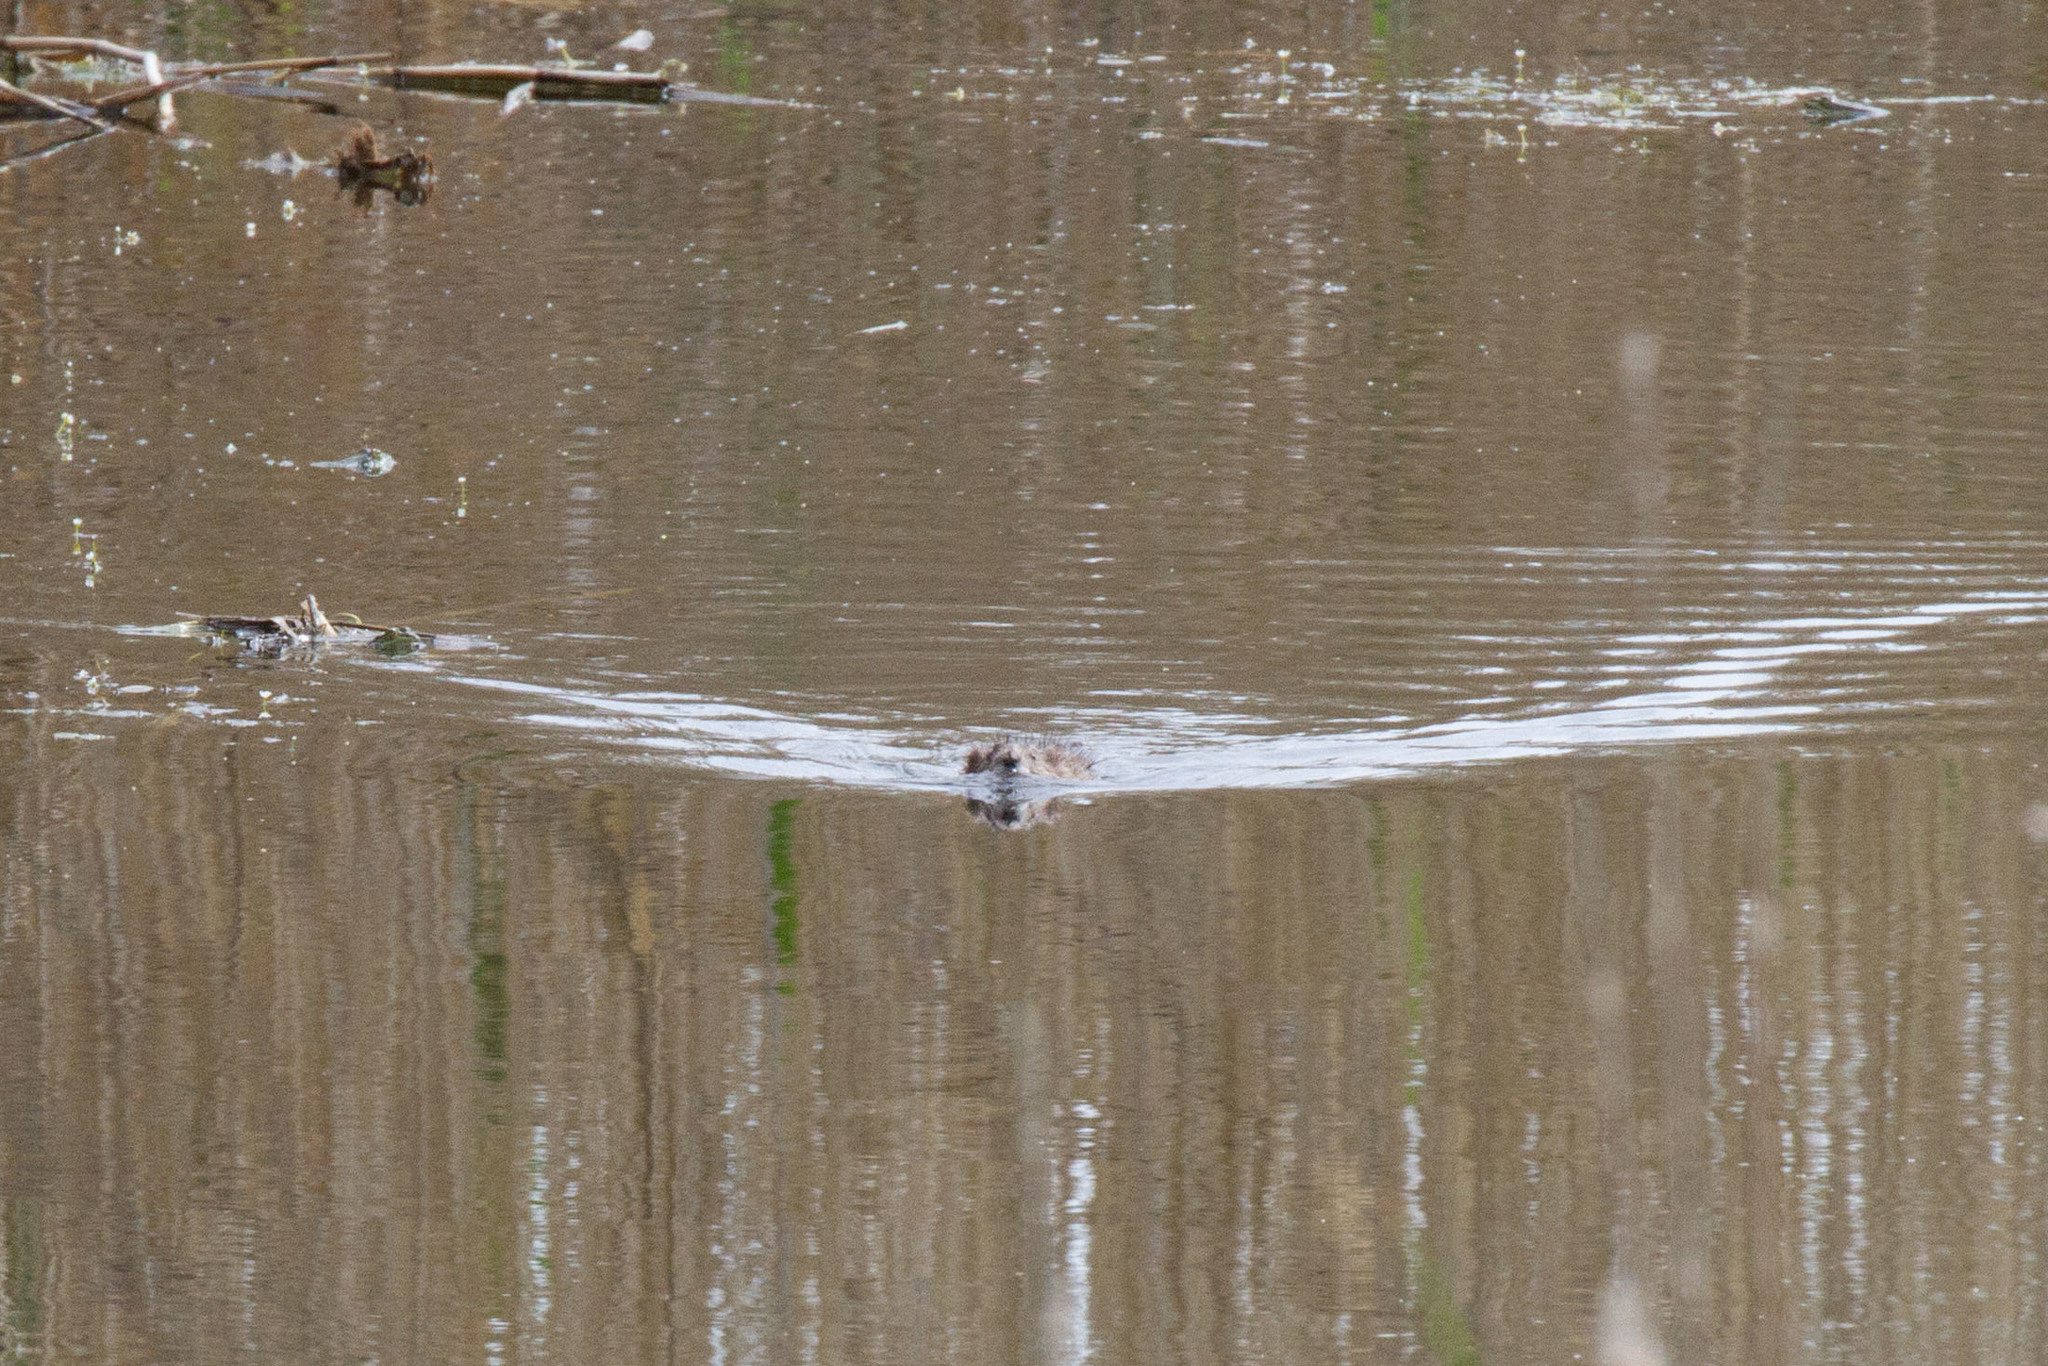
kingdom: Animalia
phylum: Chordata
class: Mammalia
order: Rodentia
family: Cricetidae
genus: Ondatra
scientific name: Ondatra zibethicus
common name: Muskrat
